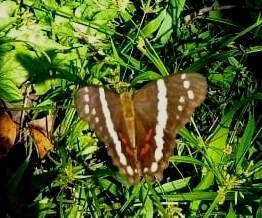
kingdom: Animalia
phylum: Arthropoda
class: Insecta
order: Lepidoptera
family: Nymphalidae
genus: Anartia
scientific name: Anartia fatima
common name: Banded peacock
